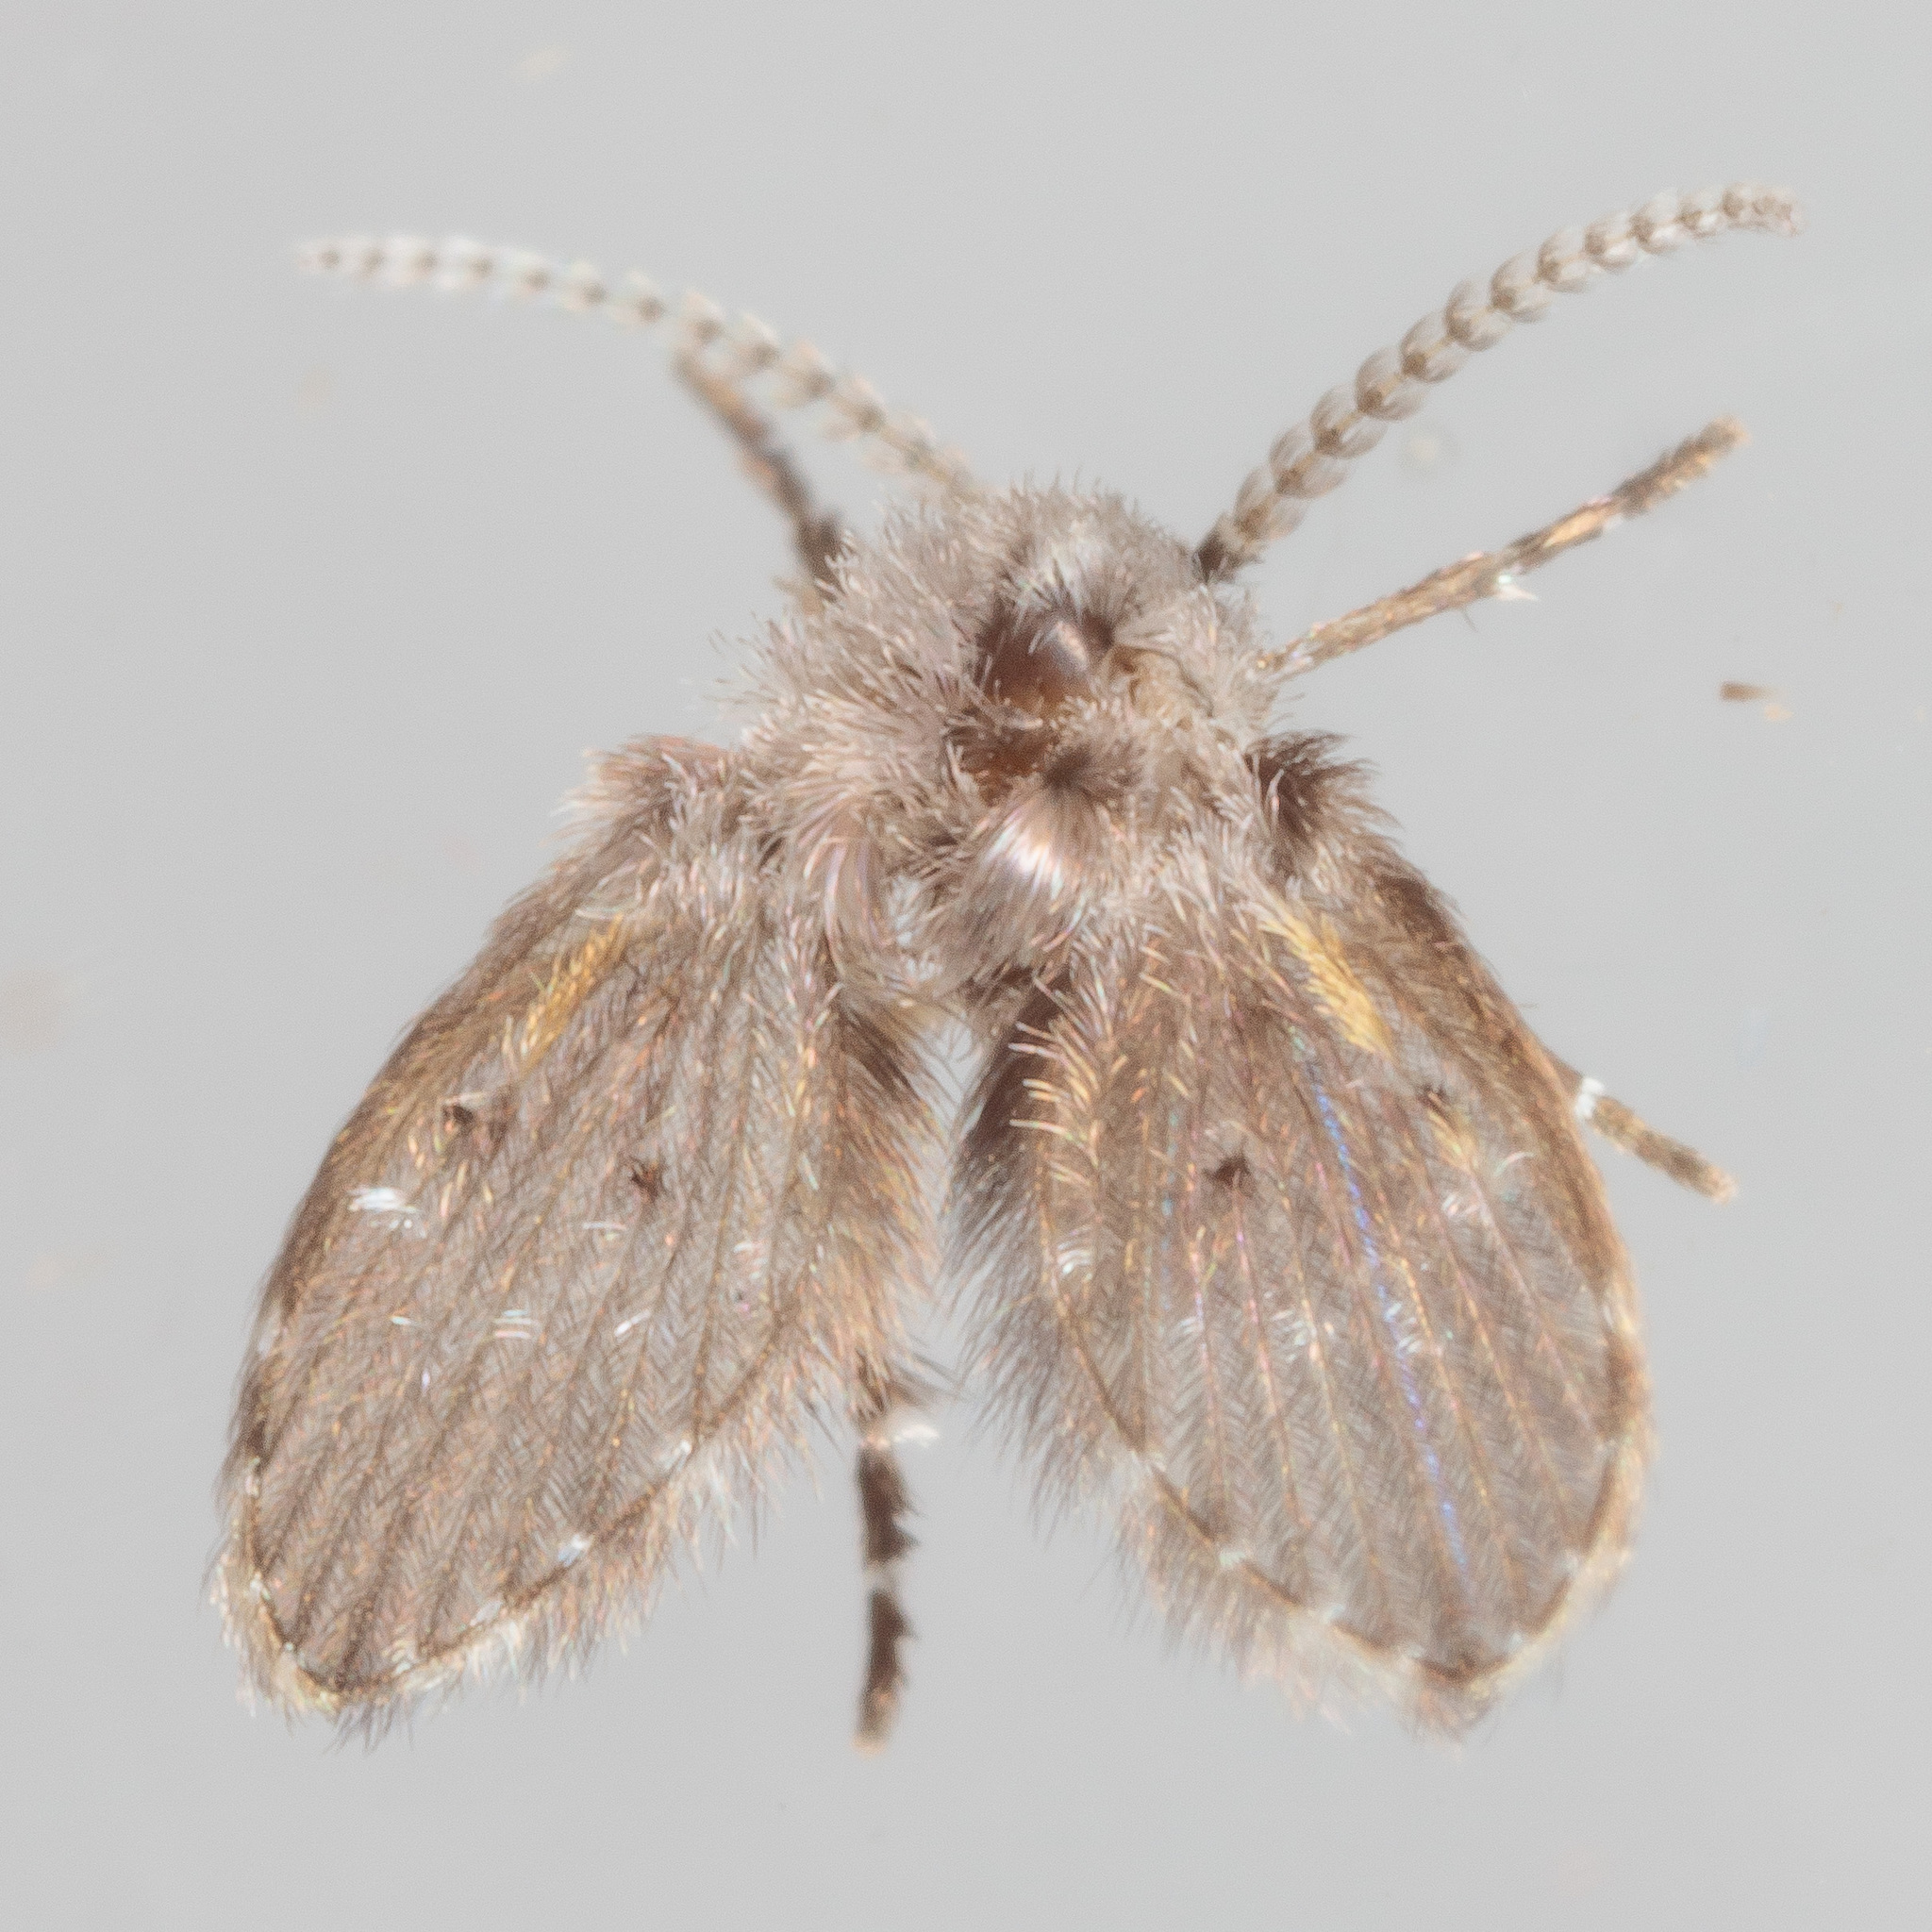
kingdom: Animalia
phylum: Arthropoda
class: Insecta
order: Diptera
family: Psychodidae
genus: Clogmia
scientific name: Clogmia albipunctatus
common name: White-spotted moth fly
